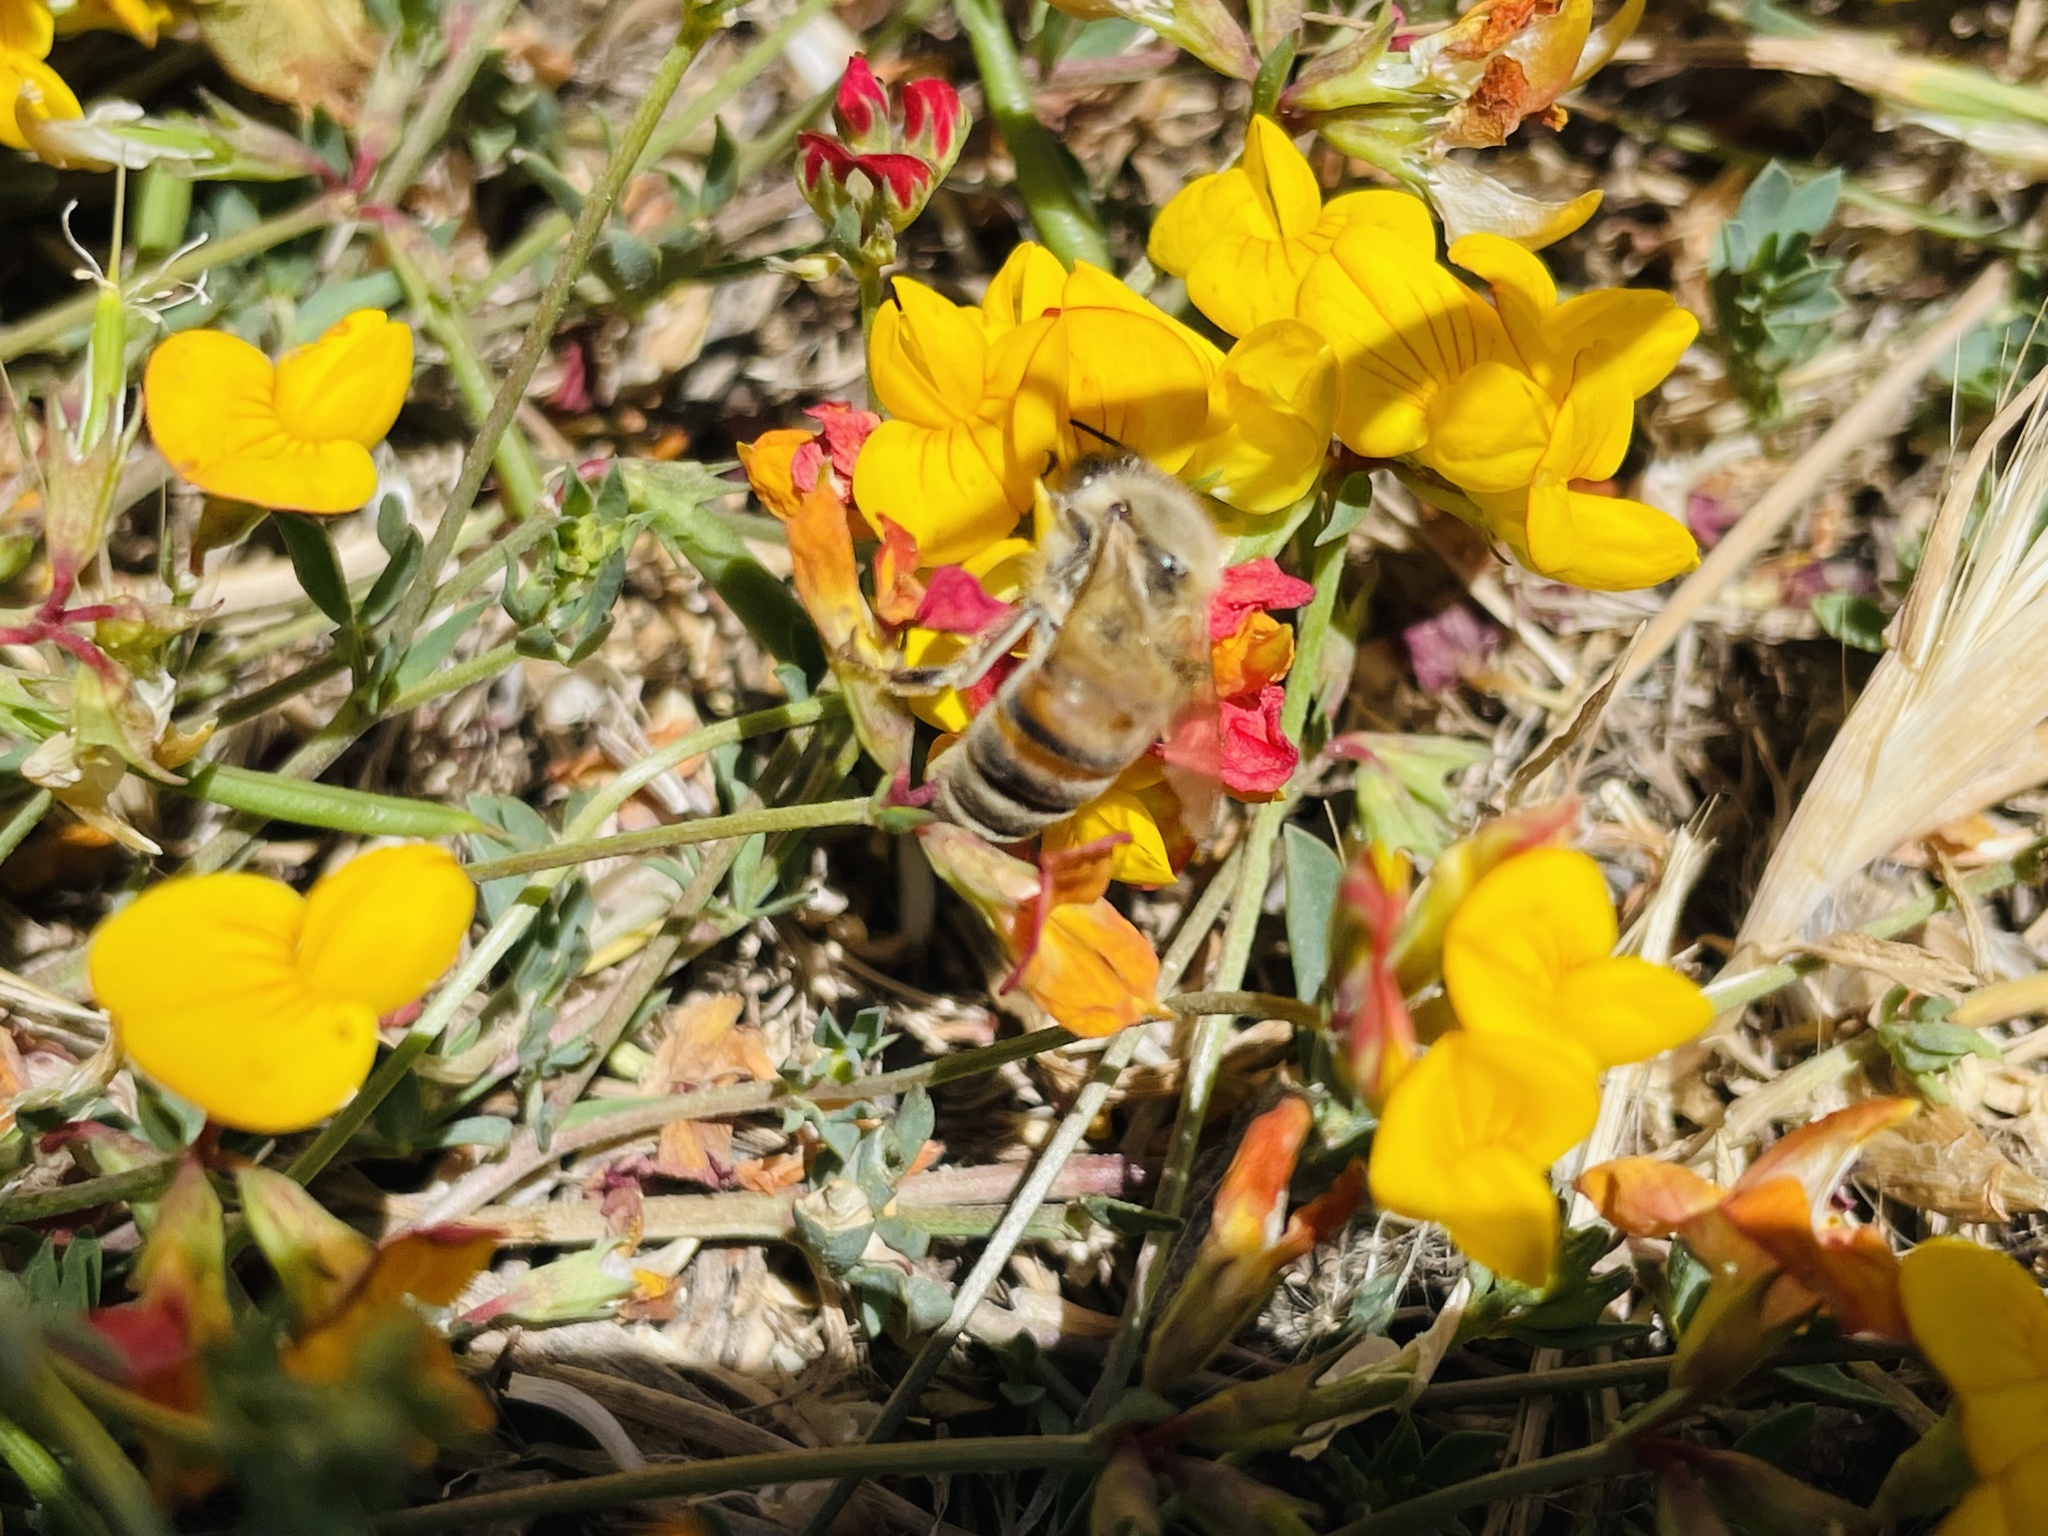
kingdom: Animalia
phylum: Arthropoda
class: Insecta
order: Hymenoptera
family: Apidae
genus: Apis
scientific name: Apis mellifera
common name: Honey bee
